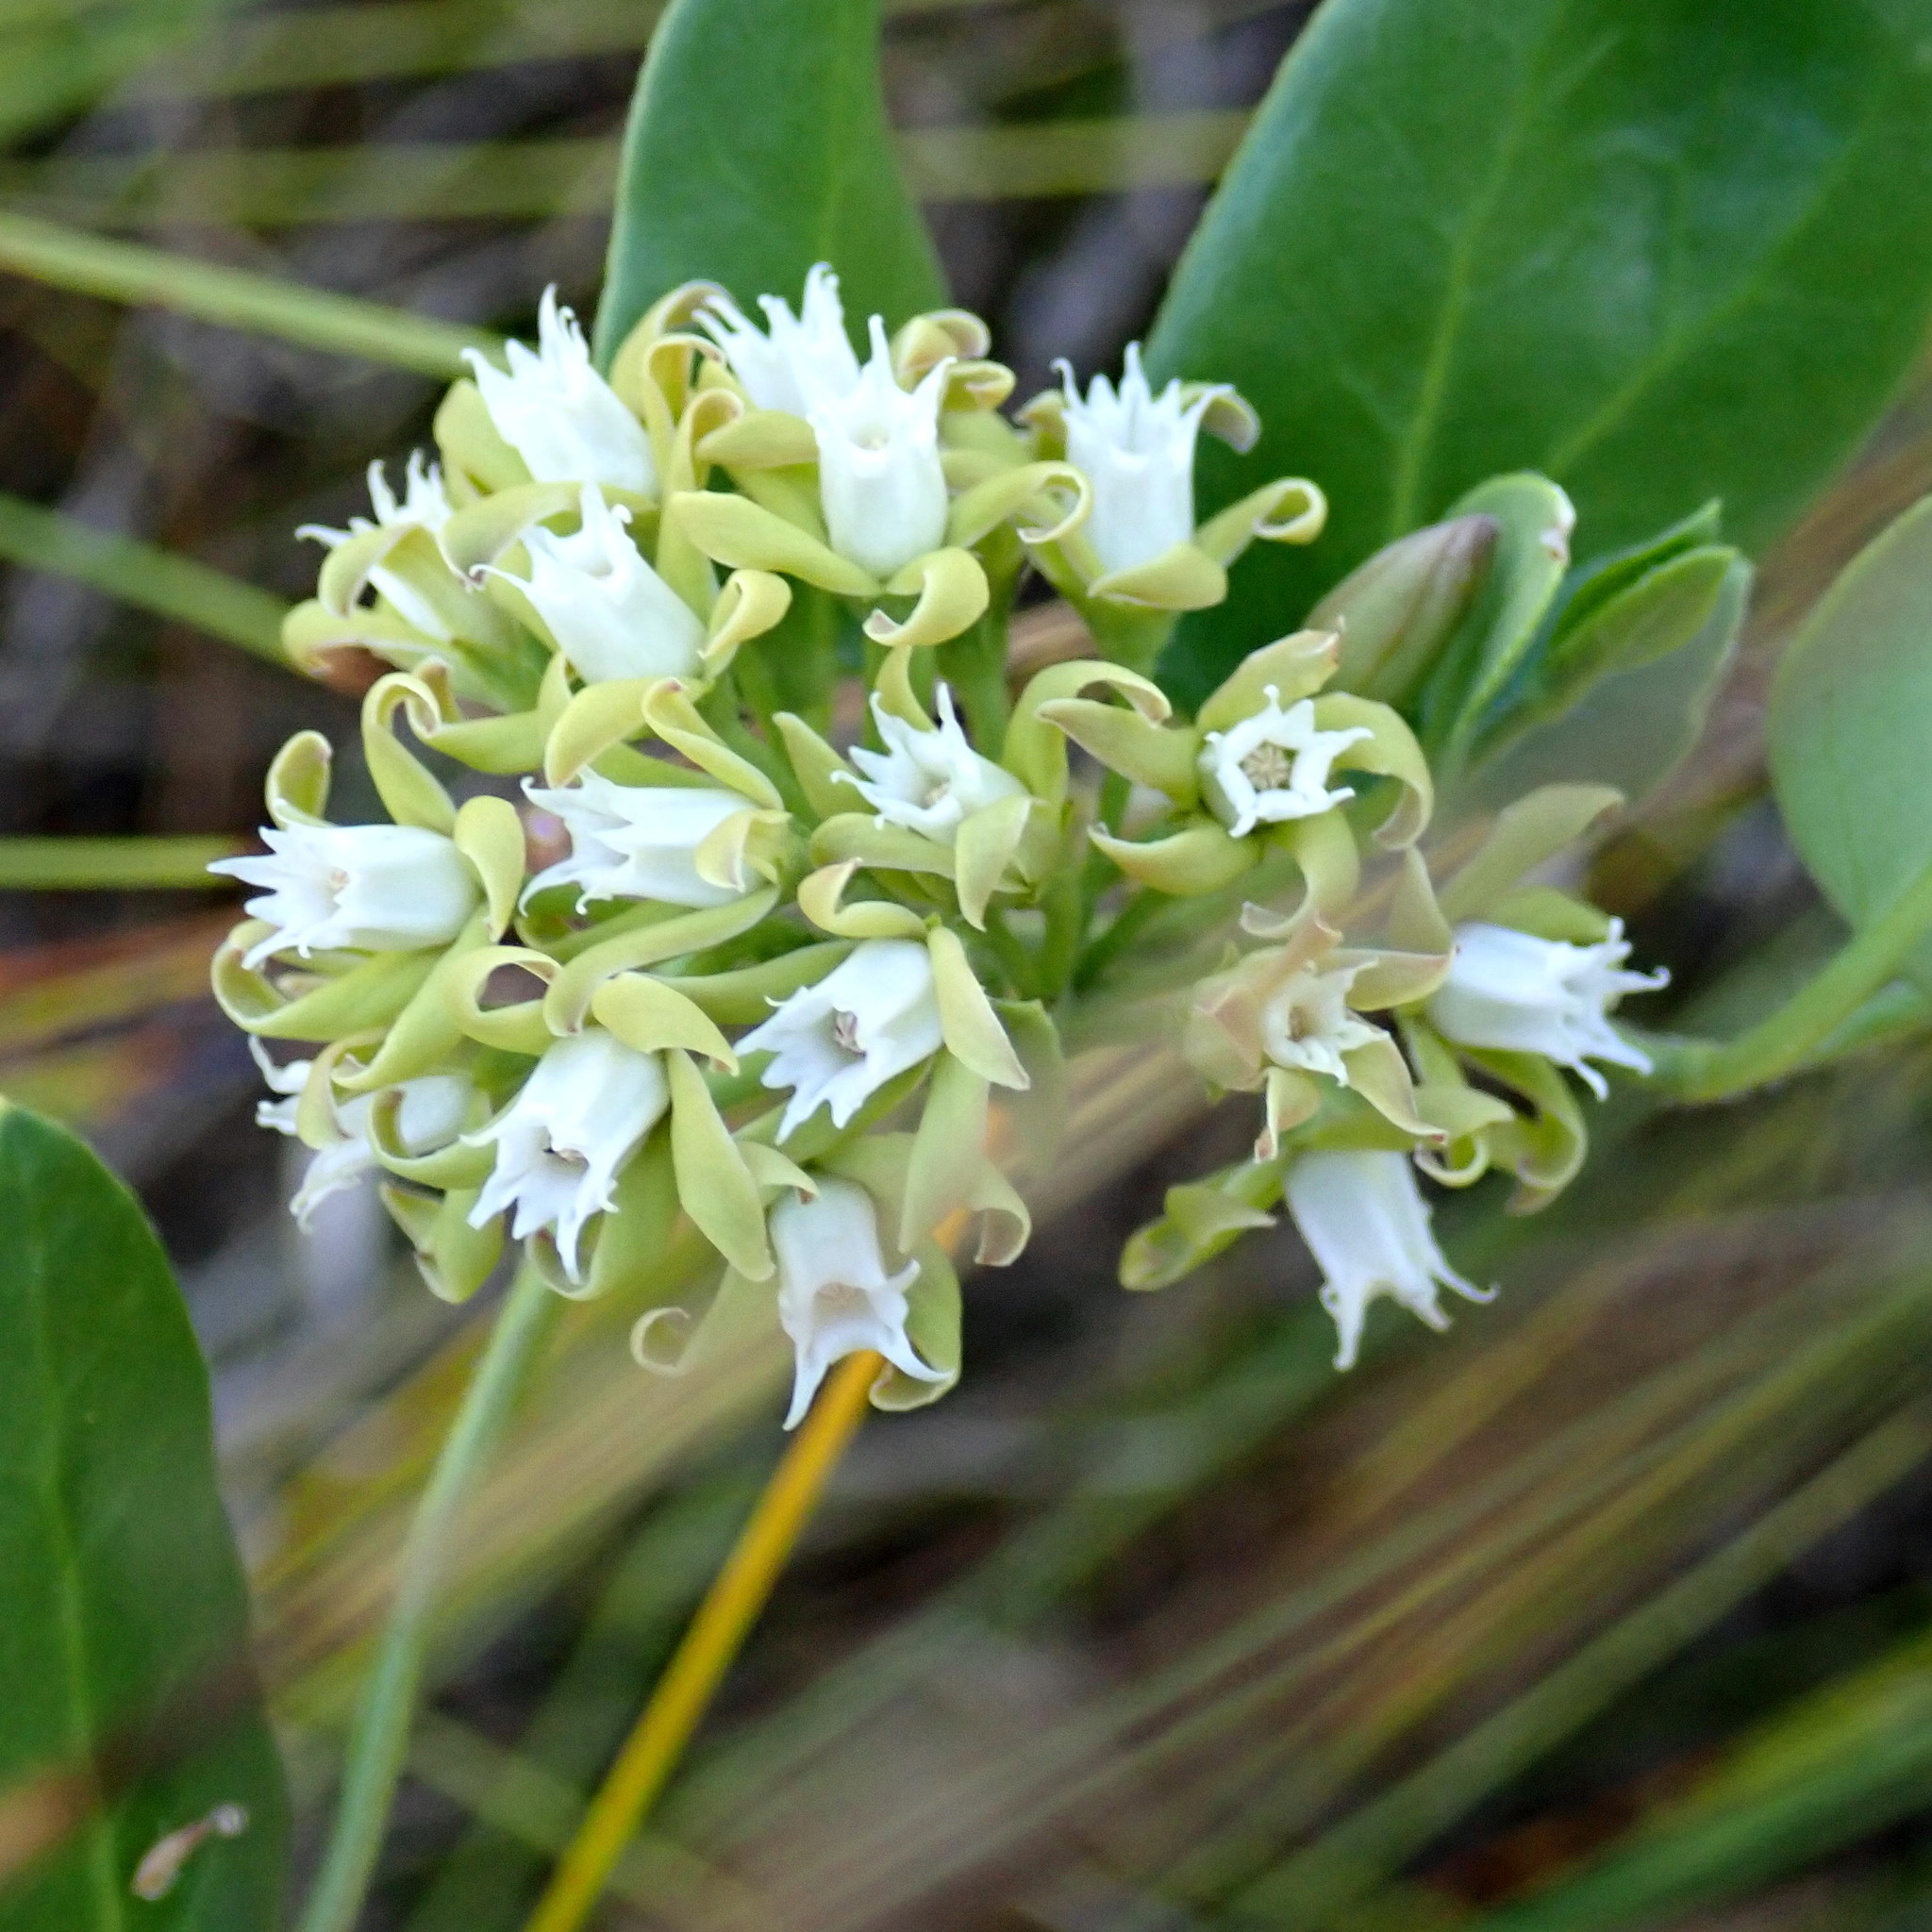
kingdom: Plantae
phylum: Tracheophyta
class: Magnoliopsida
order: Gentianales
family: Apocynaceae
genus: Cynanchum
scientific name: Cynanchum africanum
